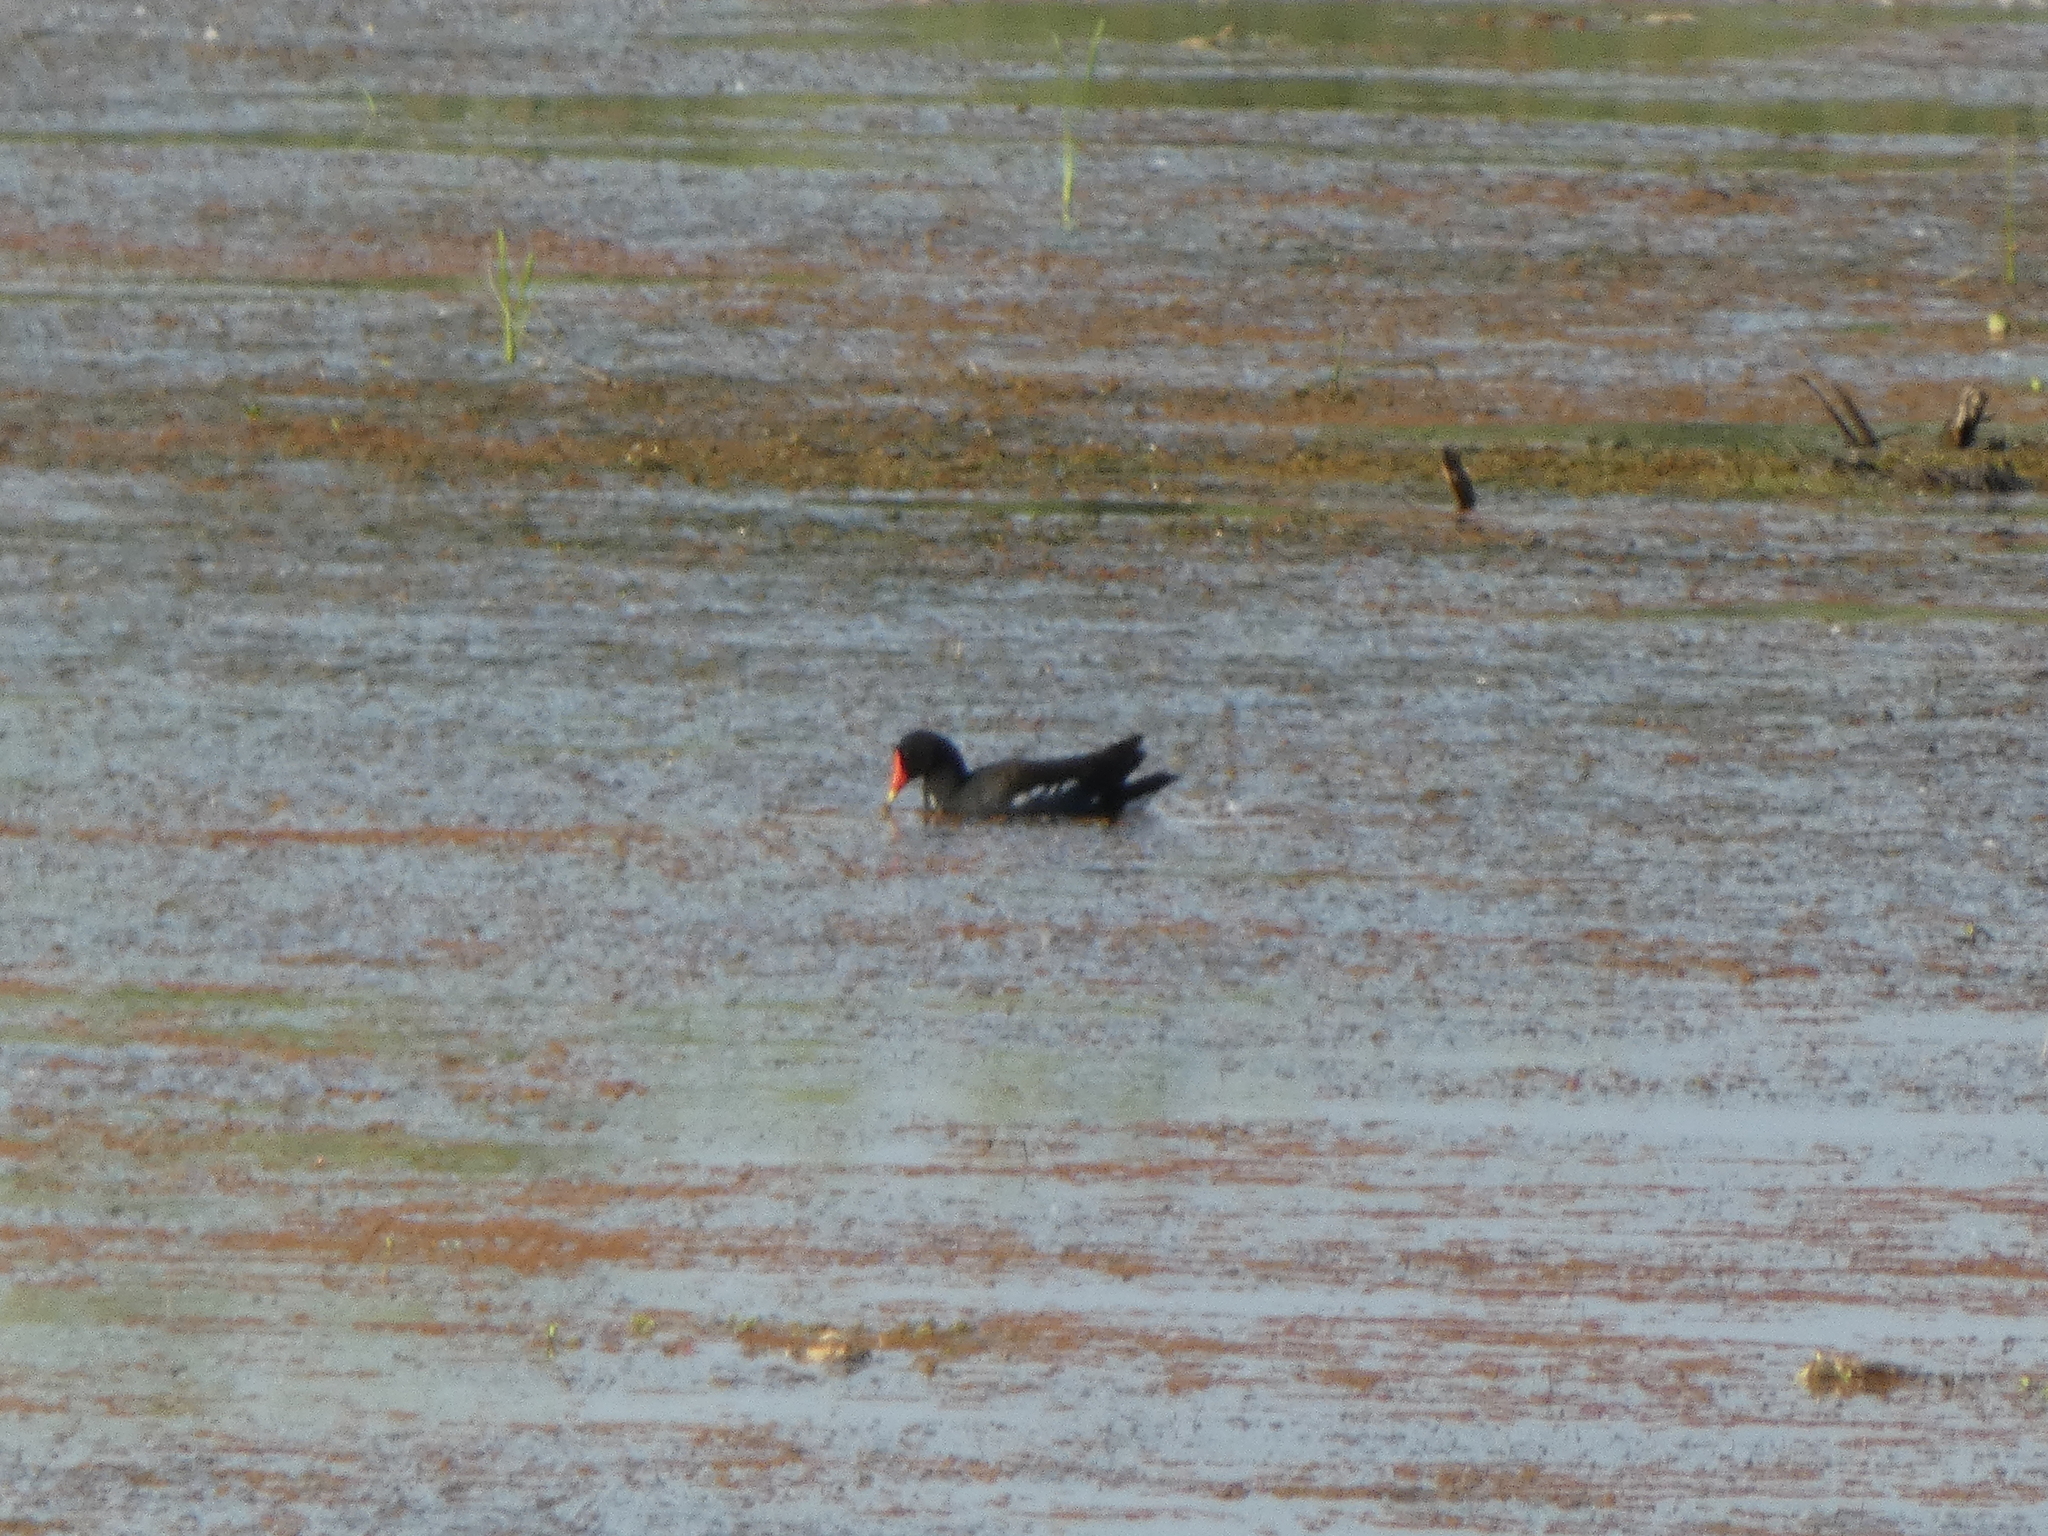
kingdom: Animalia
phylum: Chordata
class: Aves
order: Gruiformes
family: Rallidae
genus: Gallinula
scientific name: Gallinula chloropus
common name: Common moorhen
